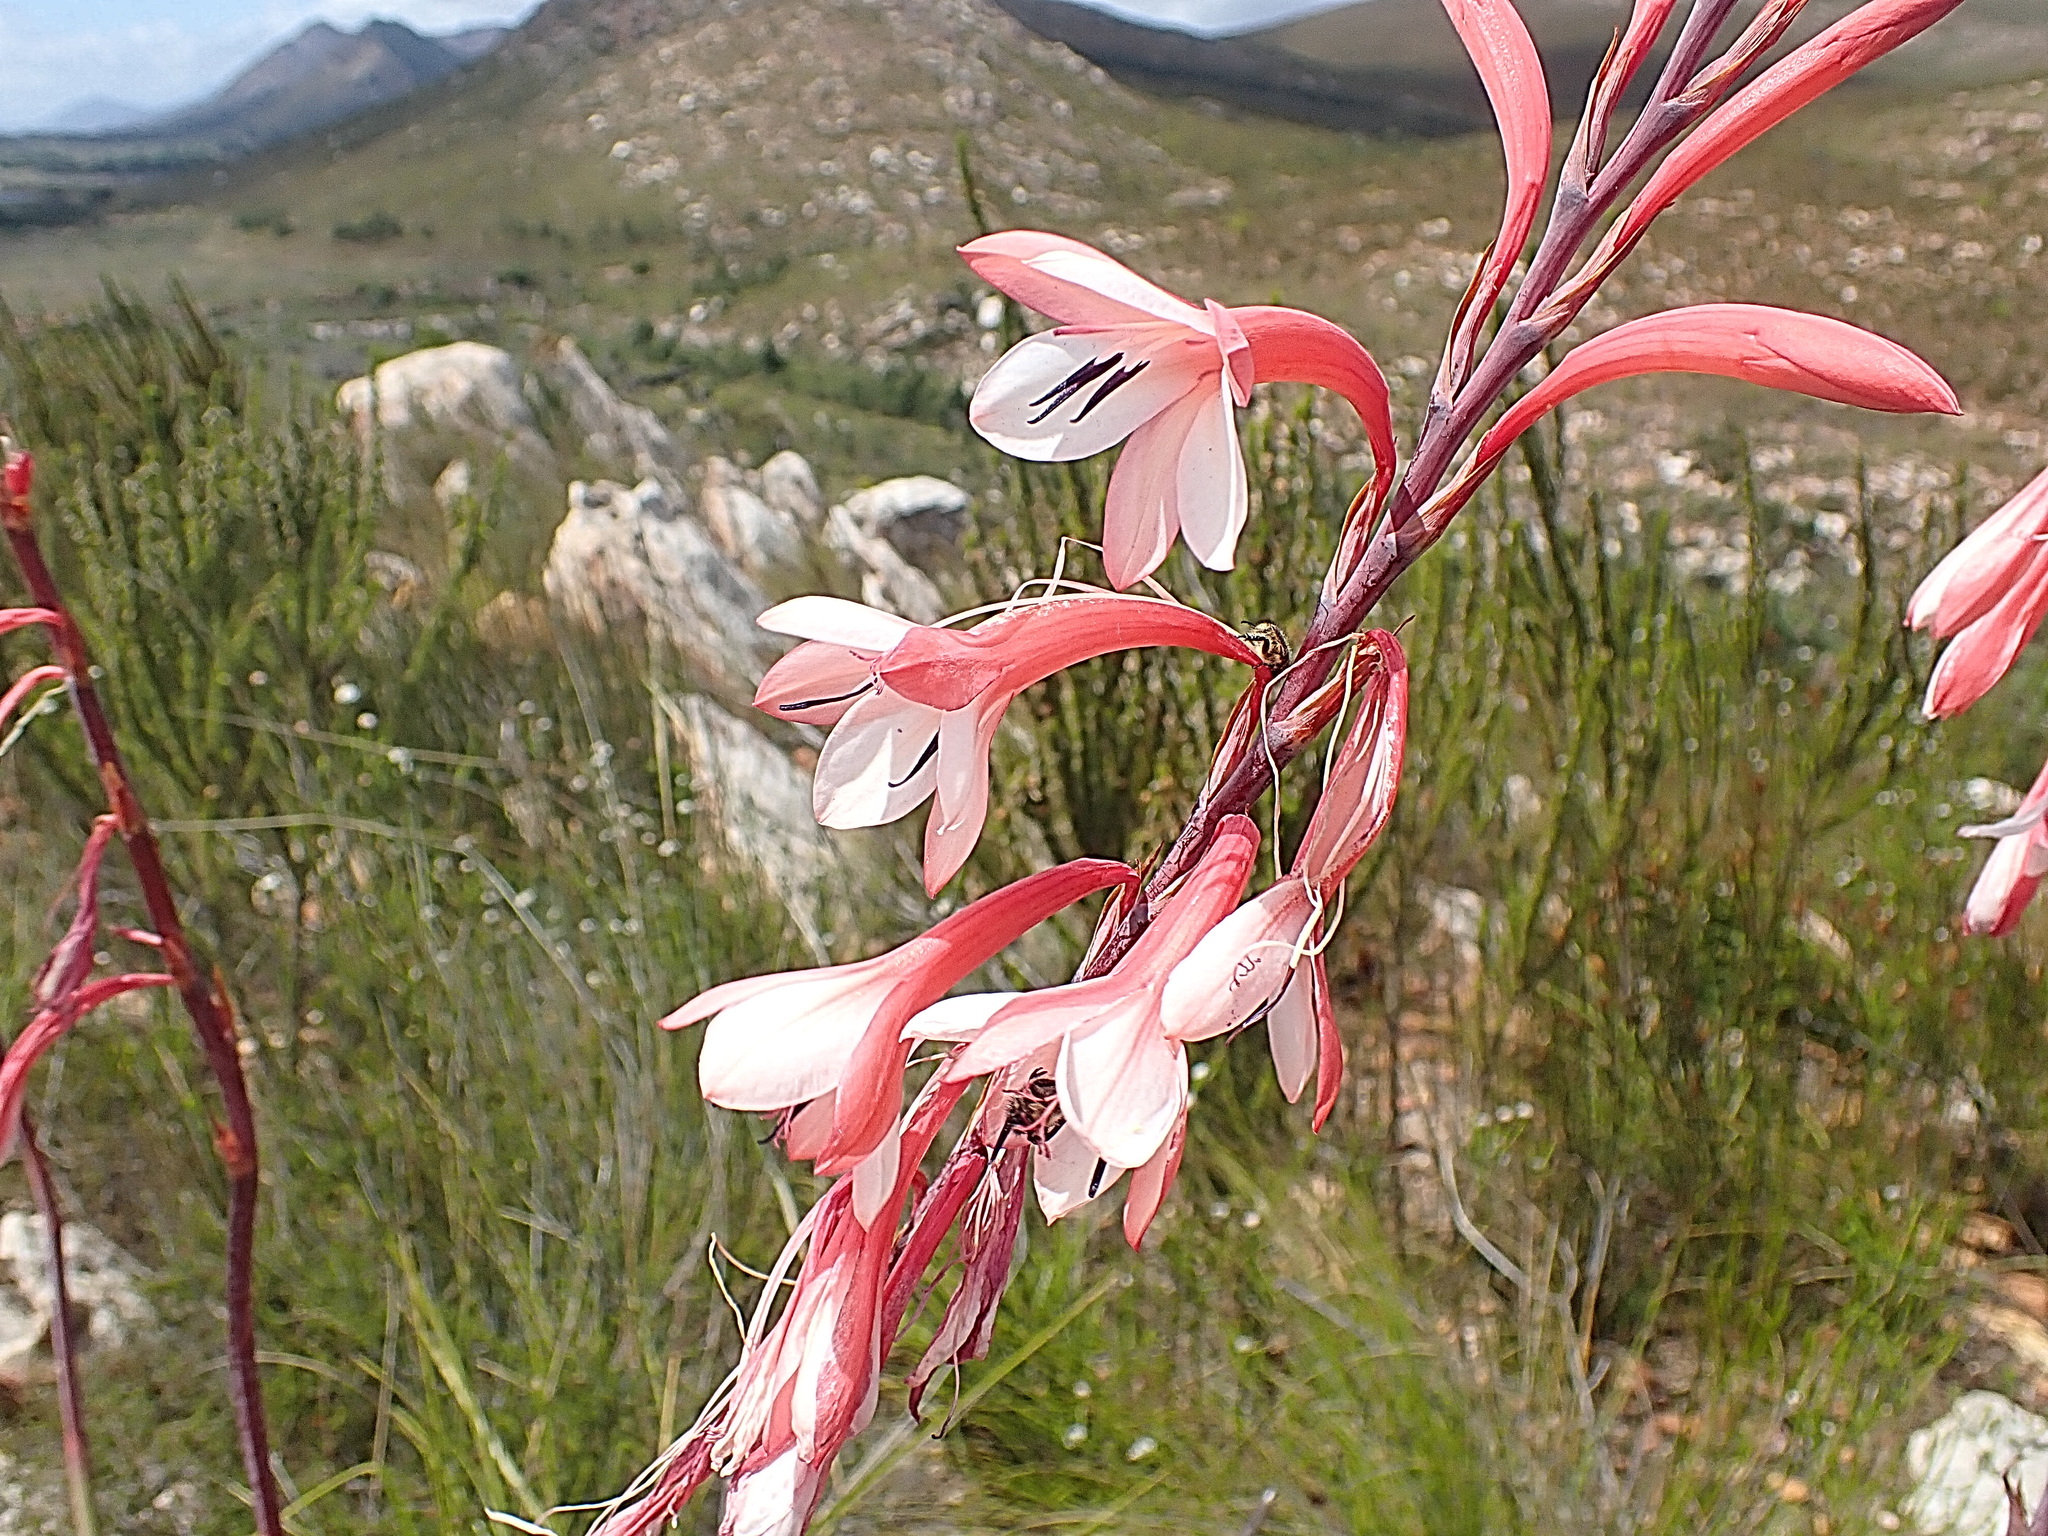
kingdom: Plantae
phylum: Tracheophyta
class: Liliopsida
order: Asparagales
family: Iridaceae
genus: Watsonia
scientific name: Watsonia fourcadei
